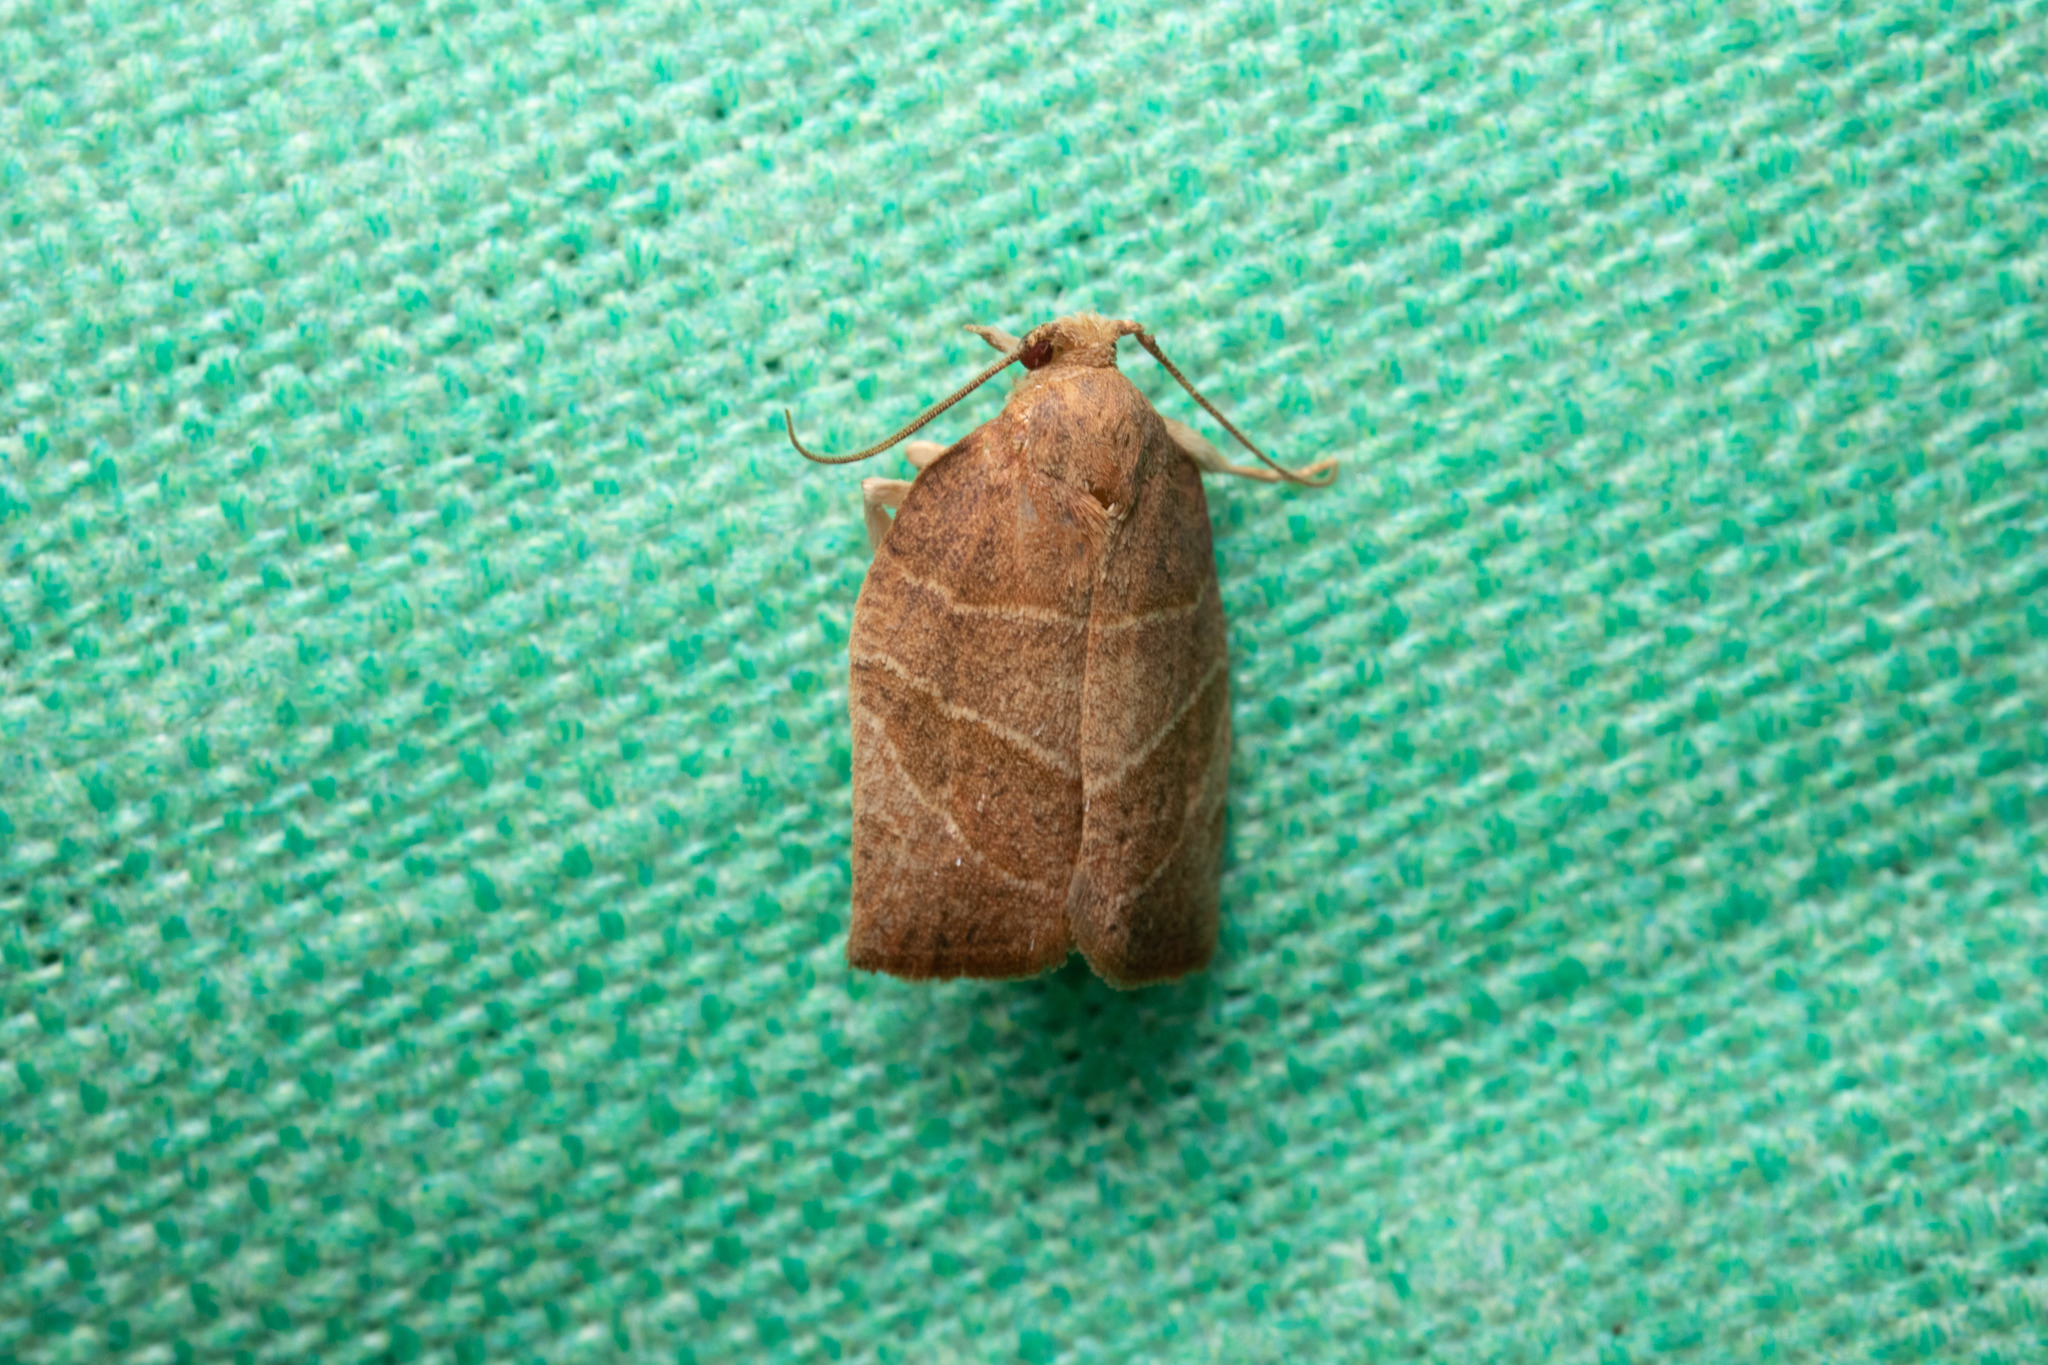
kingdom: Animalia
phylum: Arthropoda
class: Insecta
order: Lepidoptera
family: Tortricidae
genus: Pandemis
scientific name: Pandemis limitata
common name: Three-lined leafroller moth
